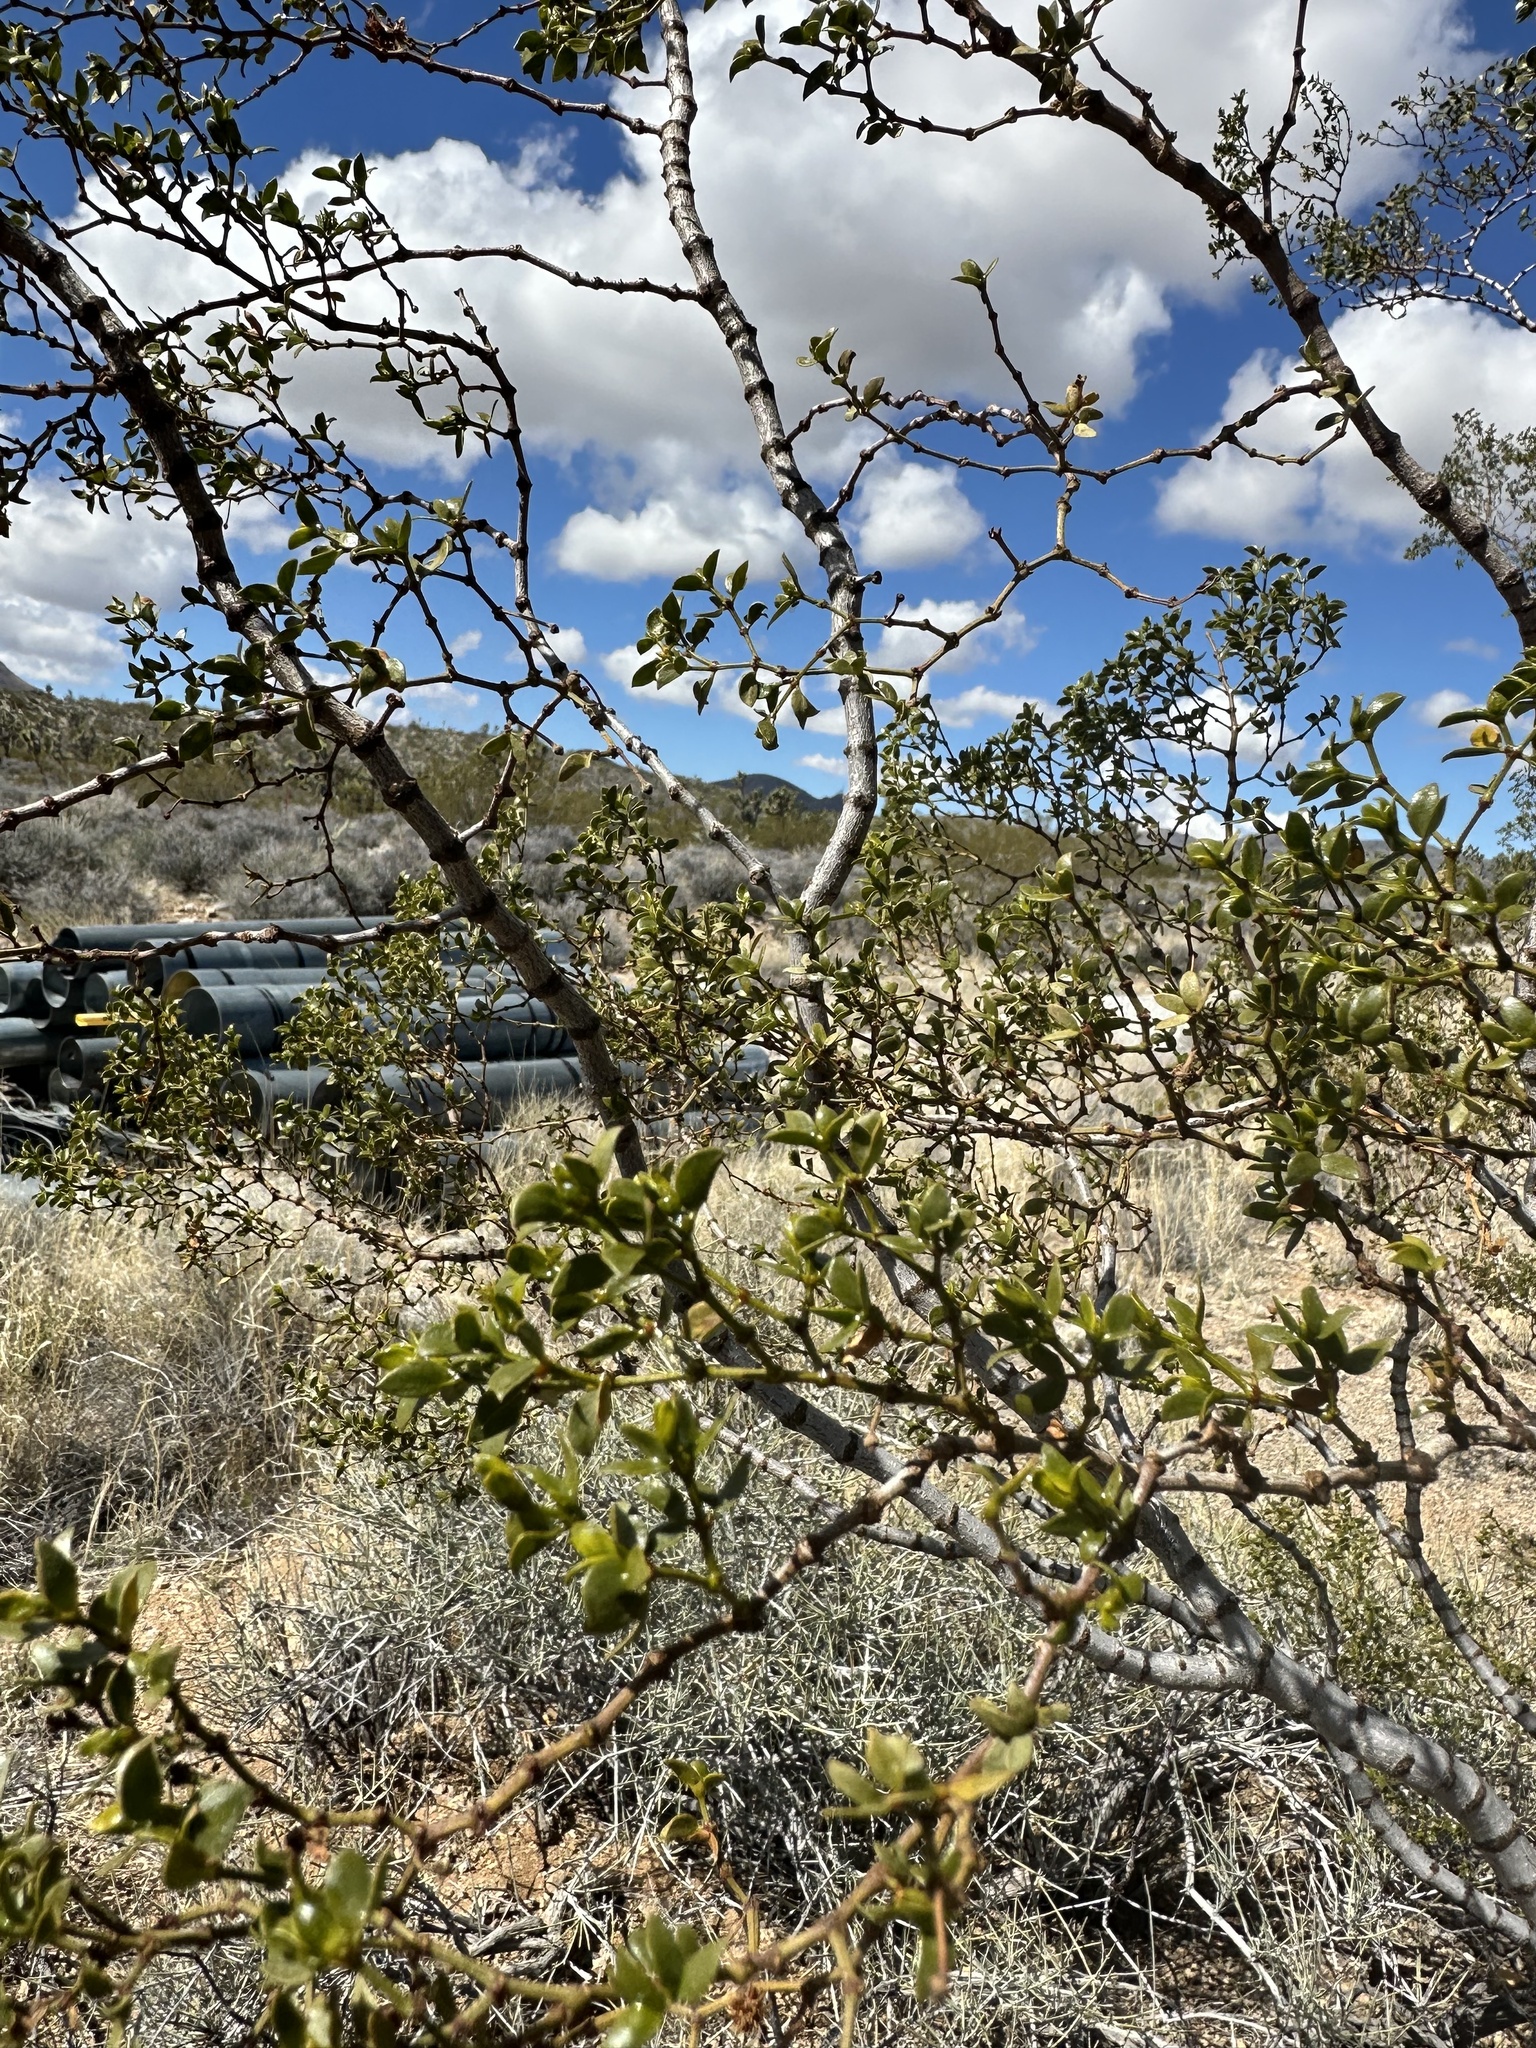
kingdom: Plantae
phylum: Tracheophyta
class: Magnoliopsida
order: Zygophyllales
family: Zygophyllaceae
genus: Larrea
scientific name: Larrea tridentata
